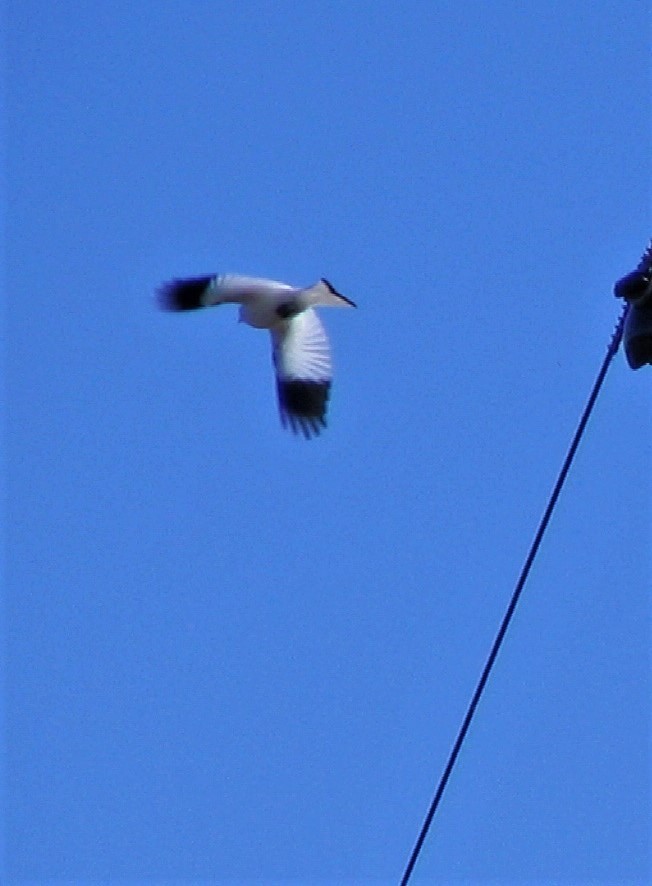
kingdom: Animalia
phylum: Chordata
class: Aves
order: Passeriformes
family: Tyrannidae
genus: Xolmis
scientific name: Xolmis irupero
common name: White monjita
